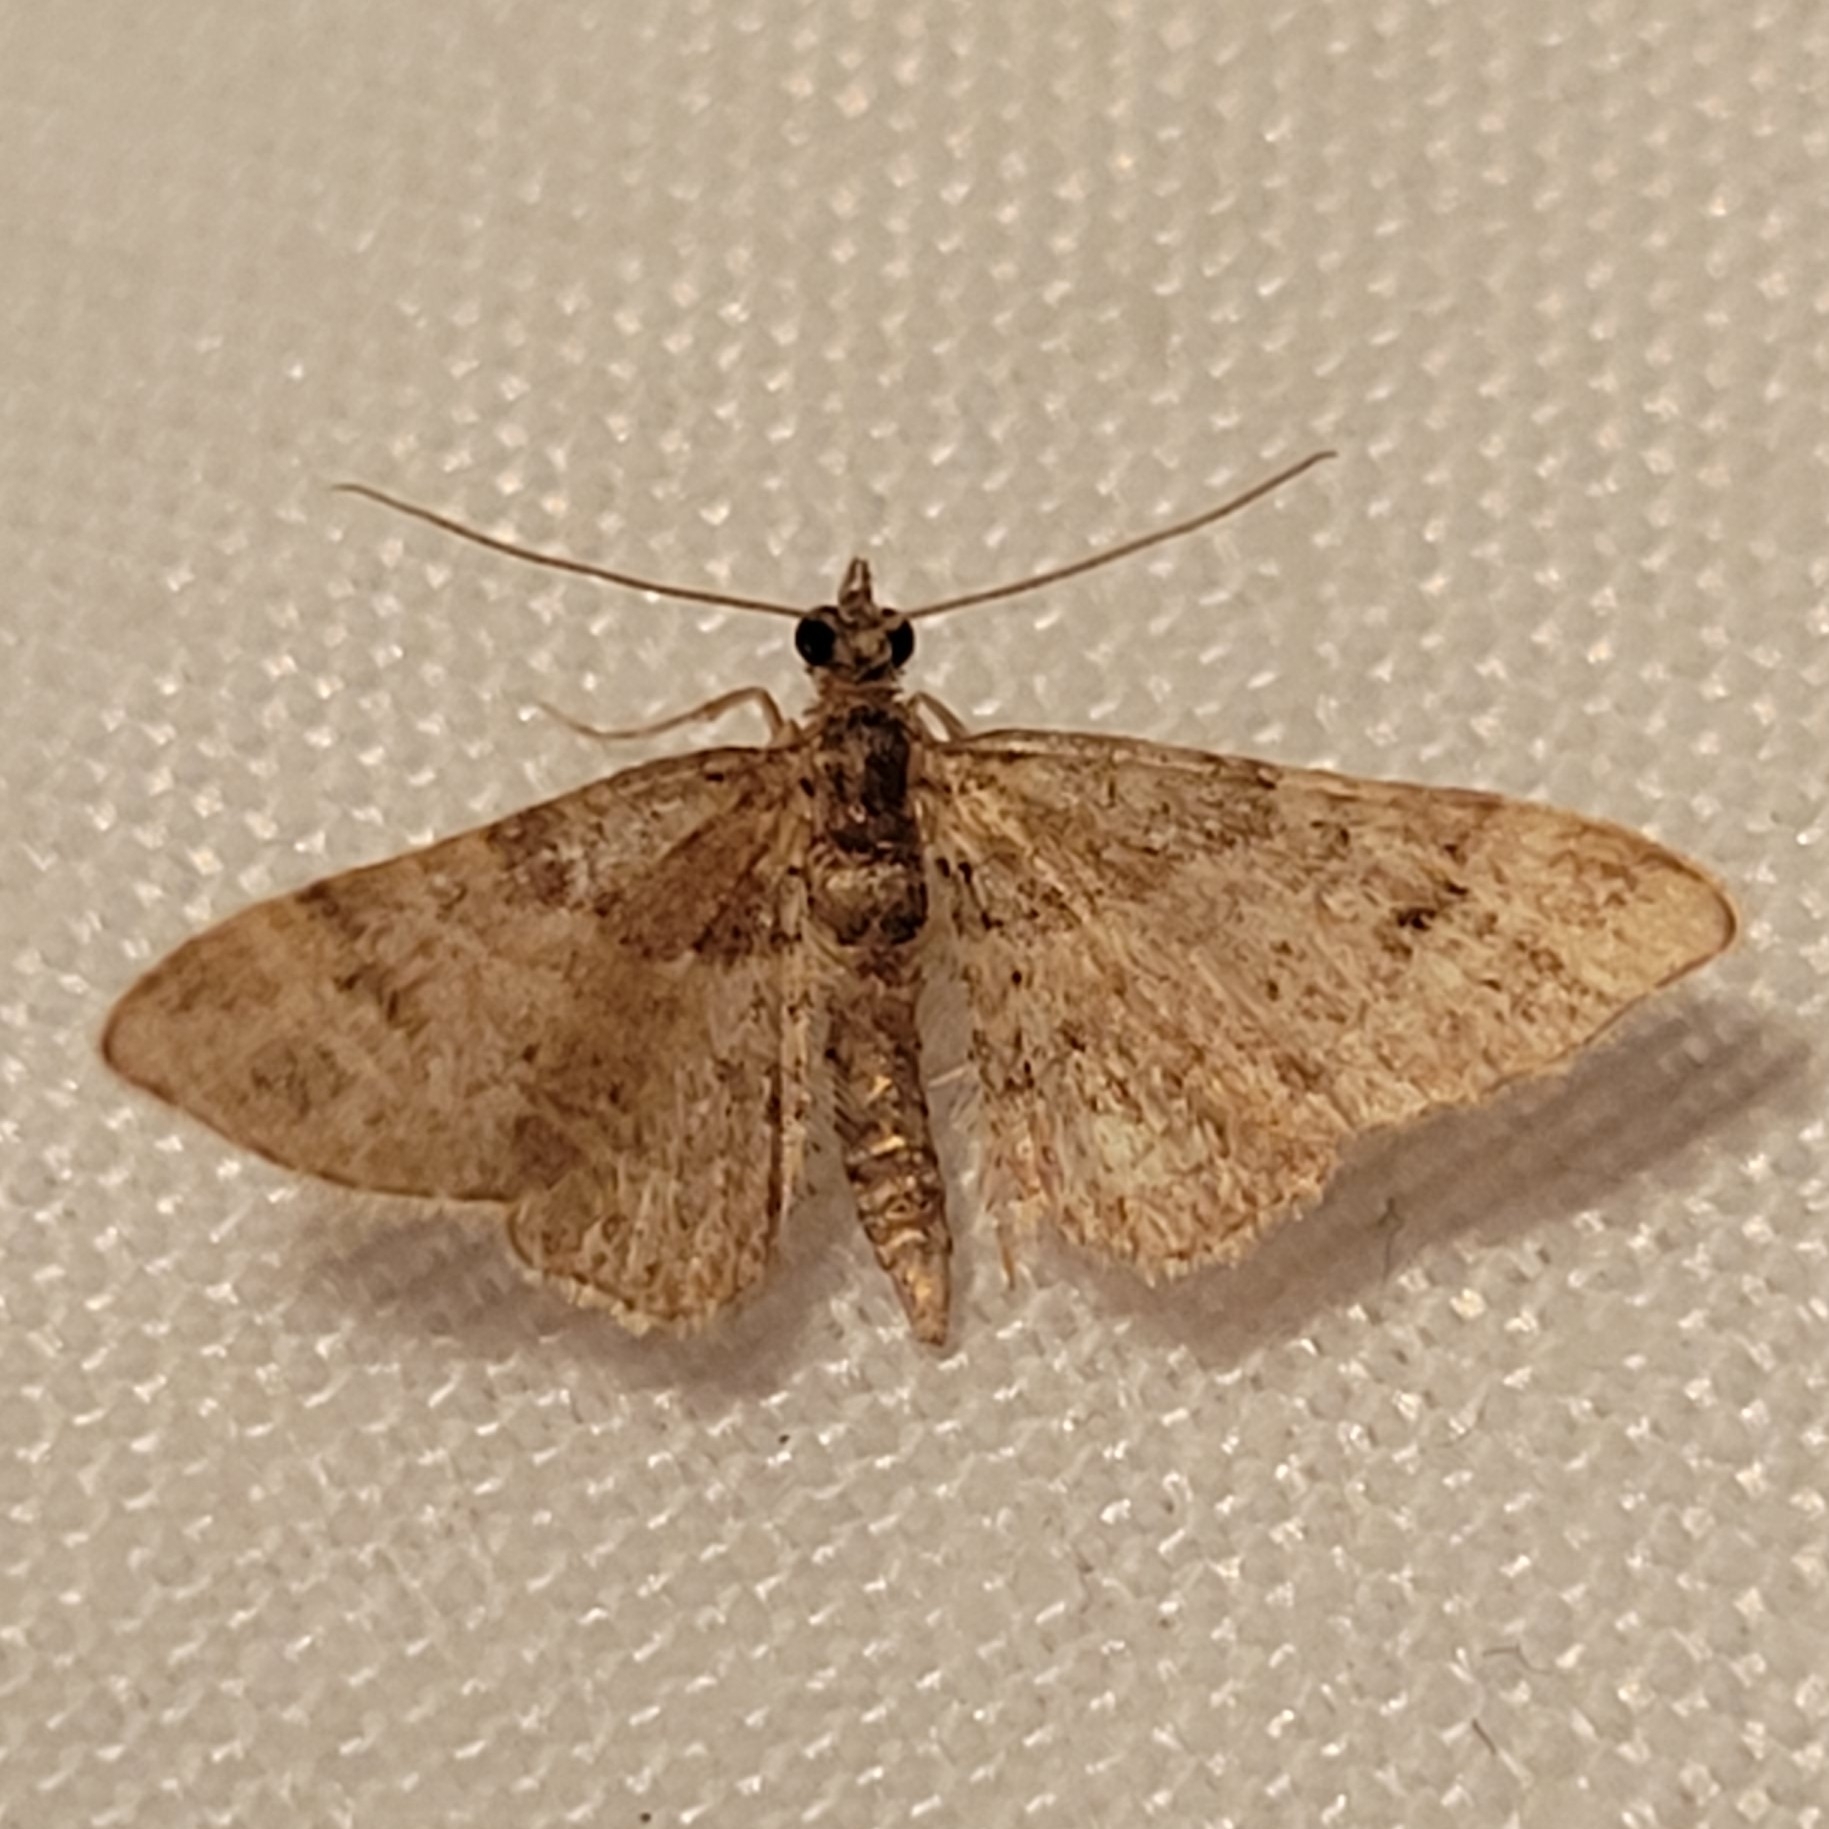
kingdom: Animalia
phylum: Arthropoda
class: Insecta
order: Lepidoptera
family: Geometridae
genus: Gymnoscelis
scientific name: Gymnoscelis rufifasciata
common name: Double-striped pug
